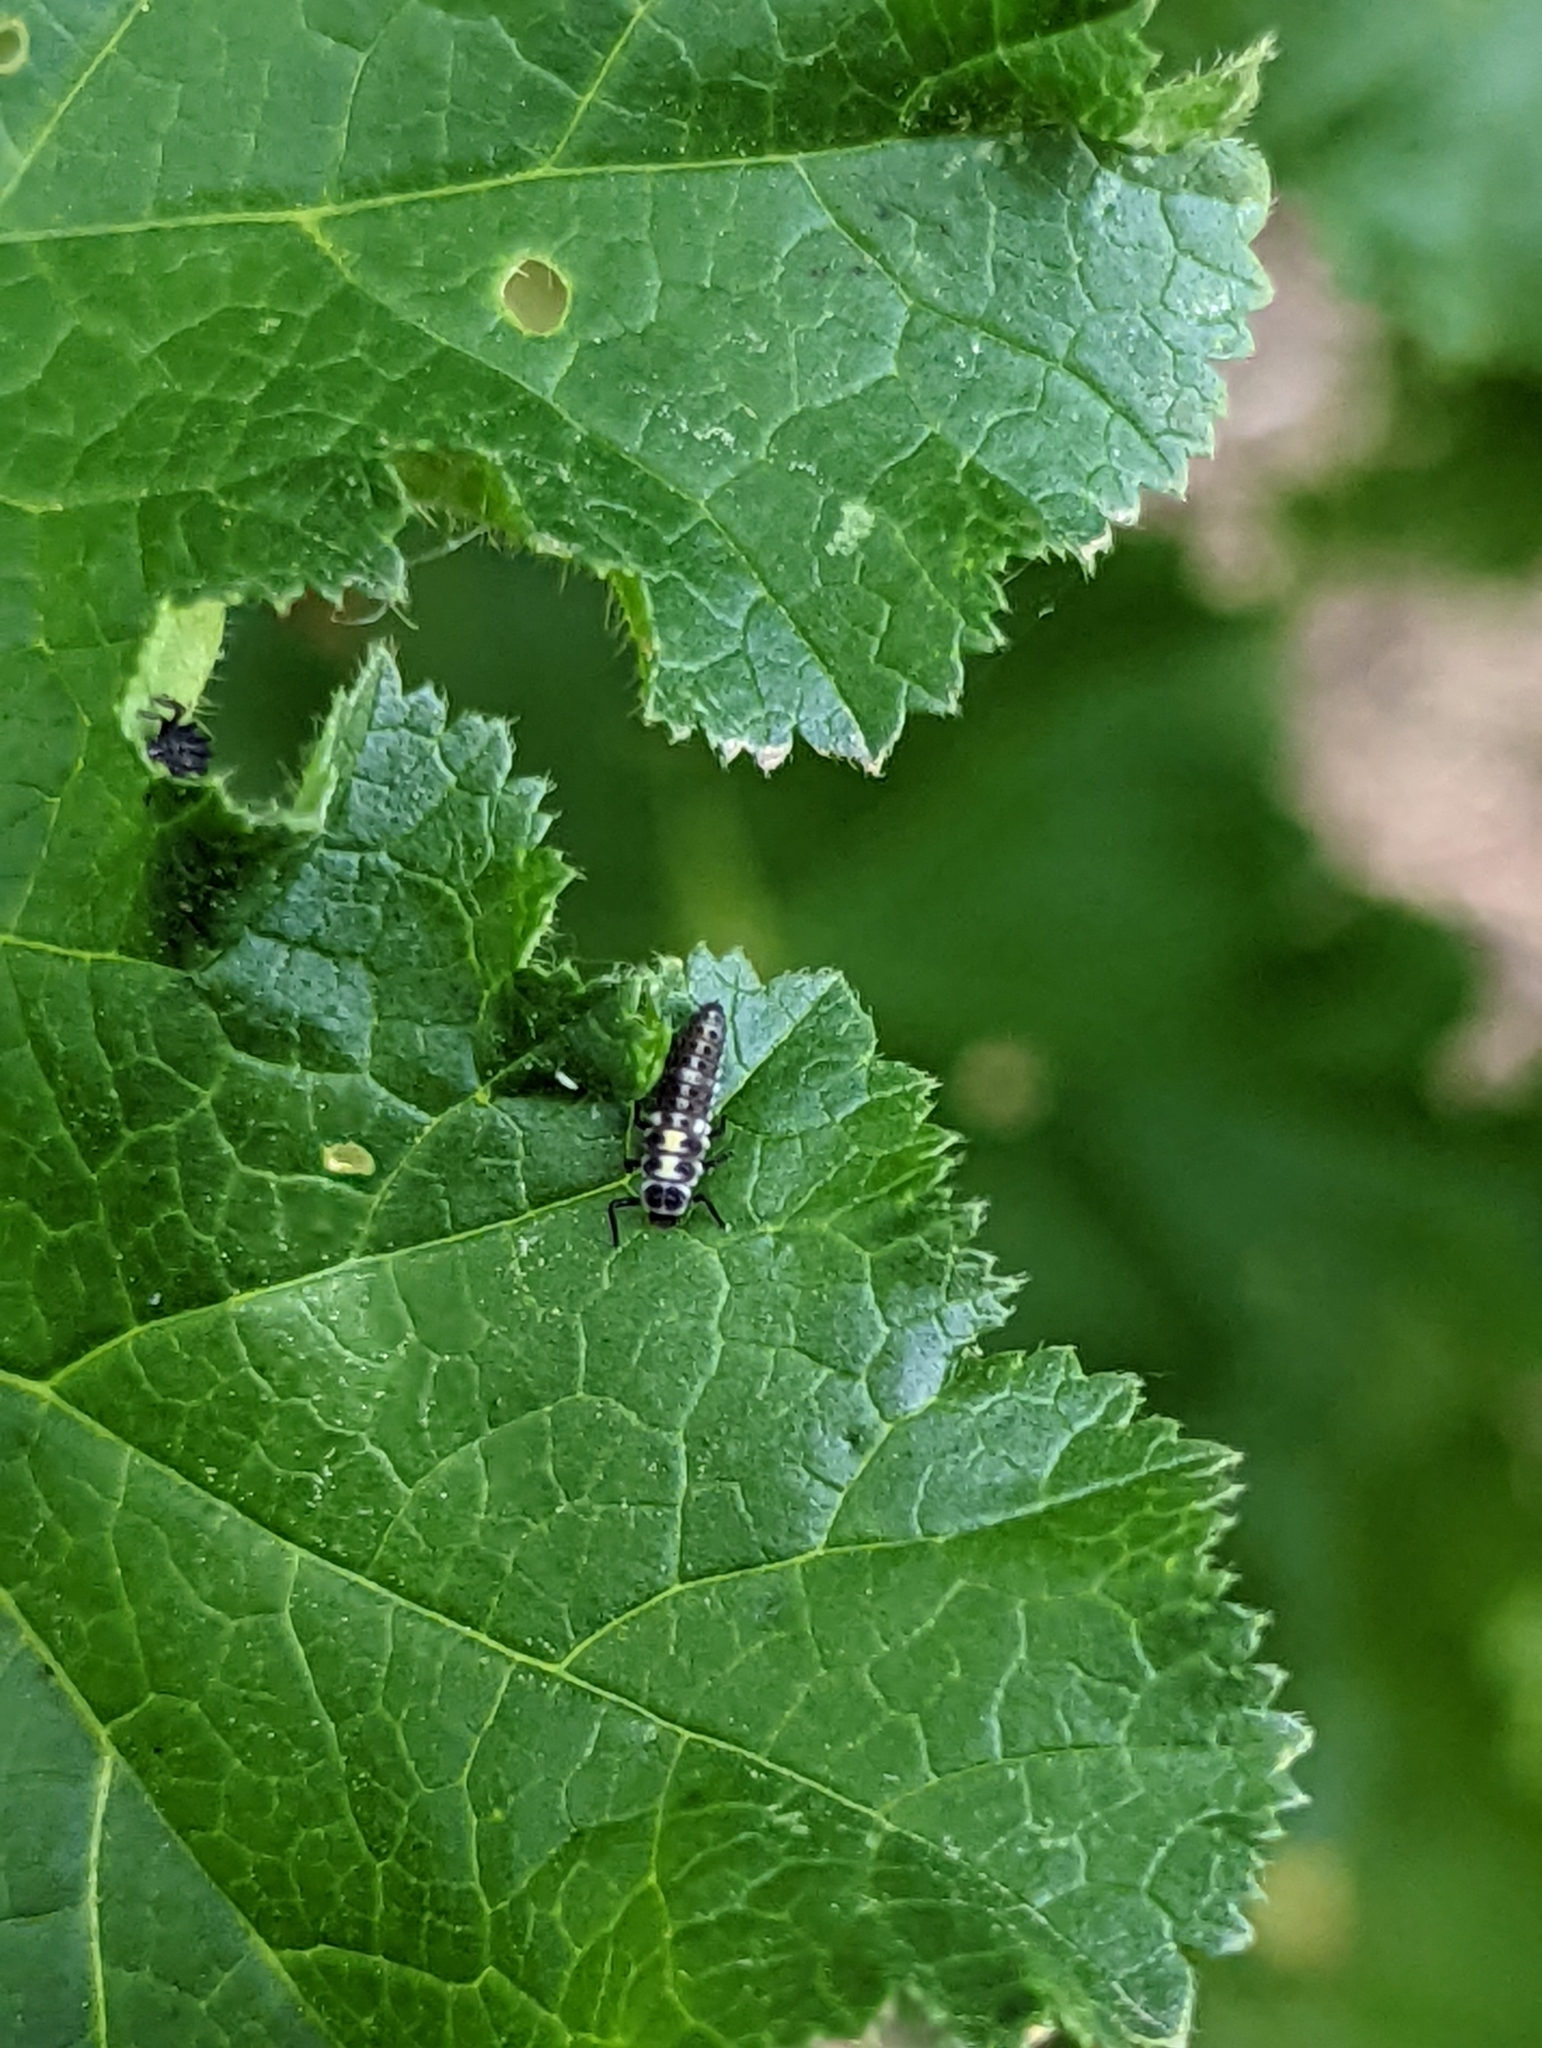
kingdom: Animalia
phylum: Arthropoda
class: Insecta
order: Coleoptera
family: Coccinellidae
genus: Propylaea
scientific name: Propylaea quatuordecimpunctata
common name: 14-spotted ladybird beetle
